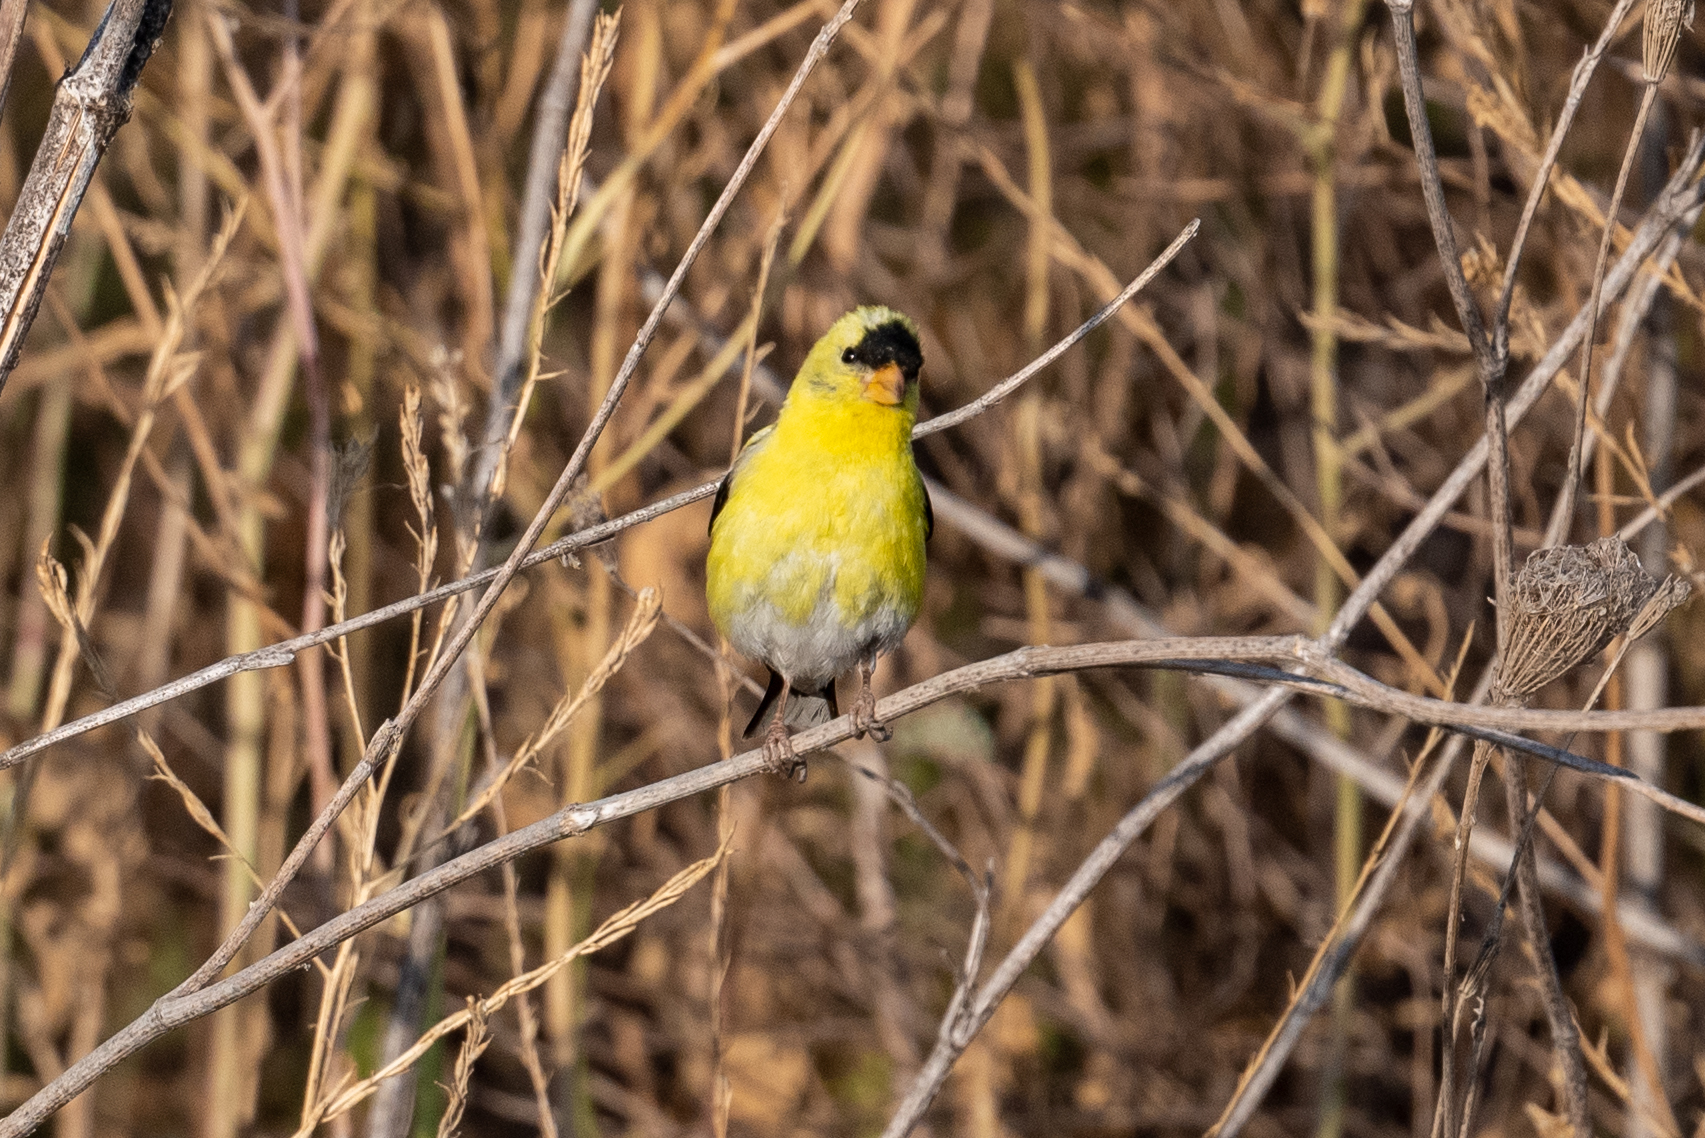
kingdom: Animalia
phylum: Chordata
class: Aves
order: Passeriformes
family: Fringillidae
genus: Spinus
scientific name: Spinus tristis
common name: American goldfinch
